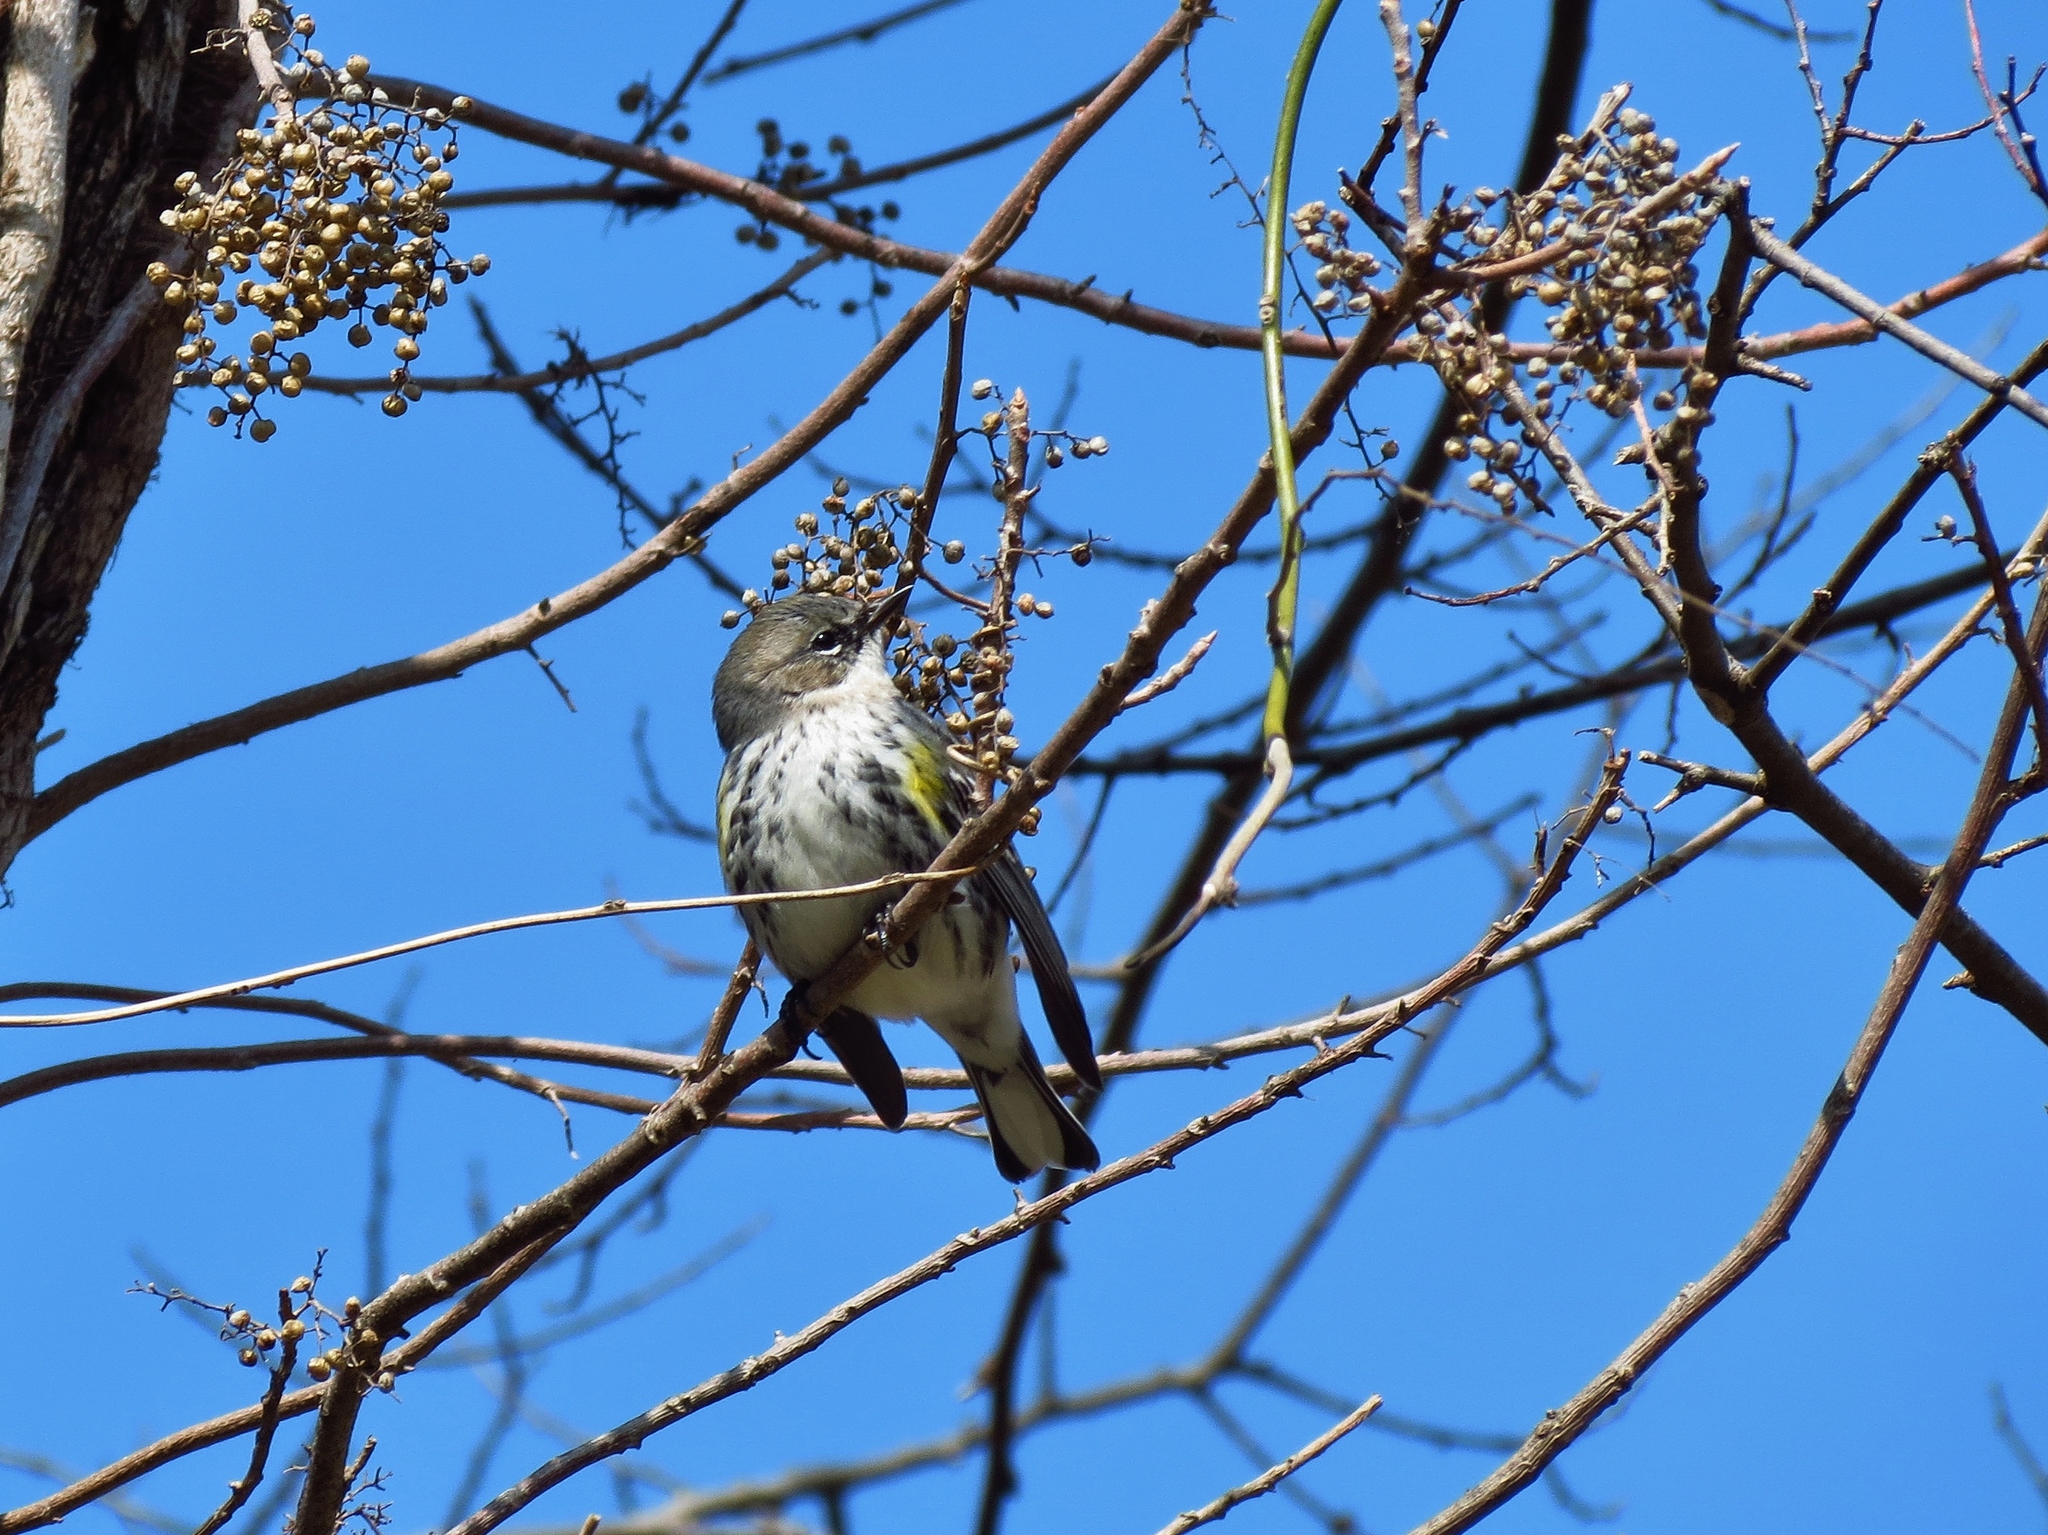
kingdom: Animalia
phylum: Chordata
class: Aves
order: Passeriformes
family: Parulidae
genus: Setophaga
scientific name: Setophaga coronata
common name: Myrtle warbler
